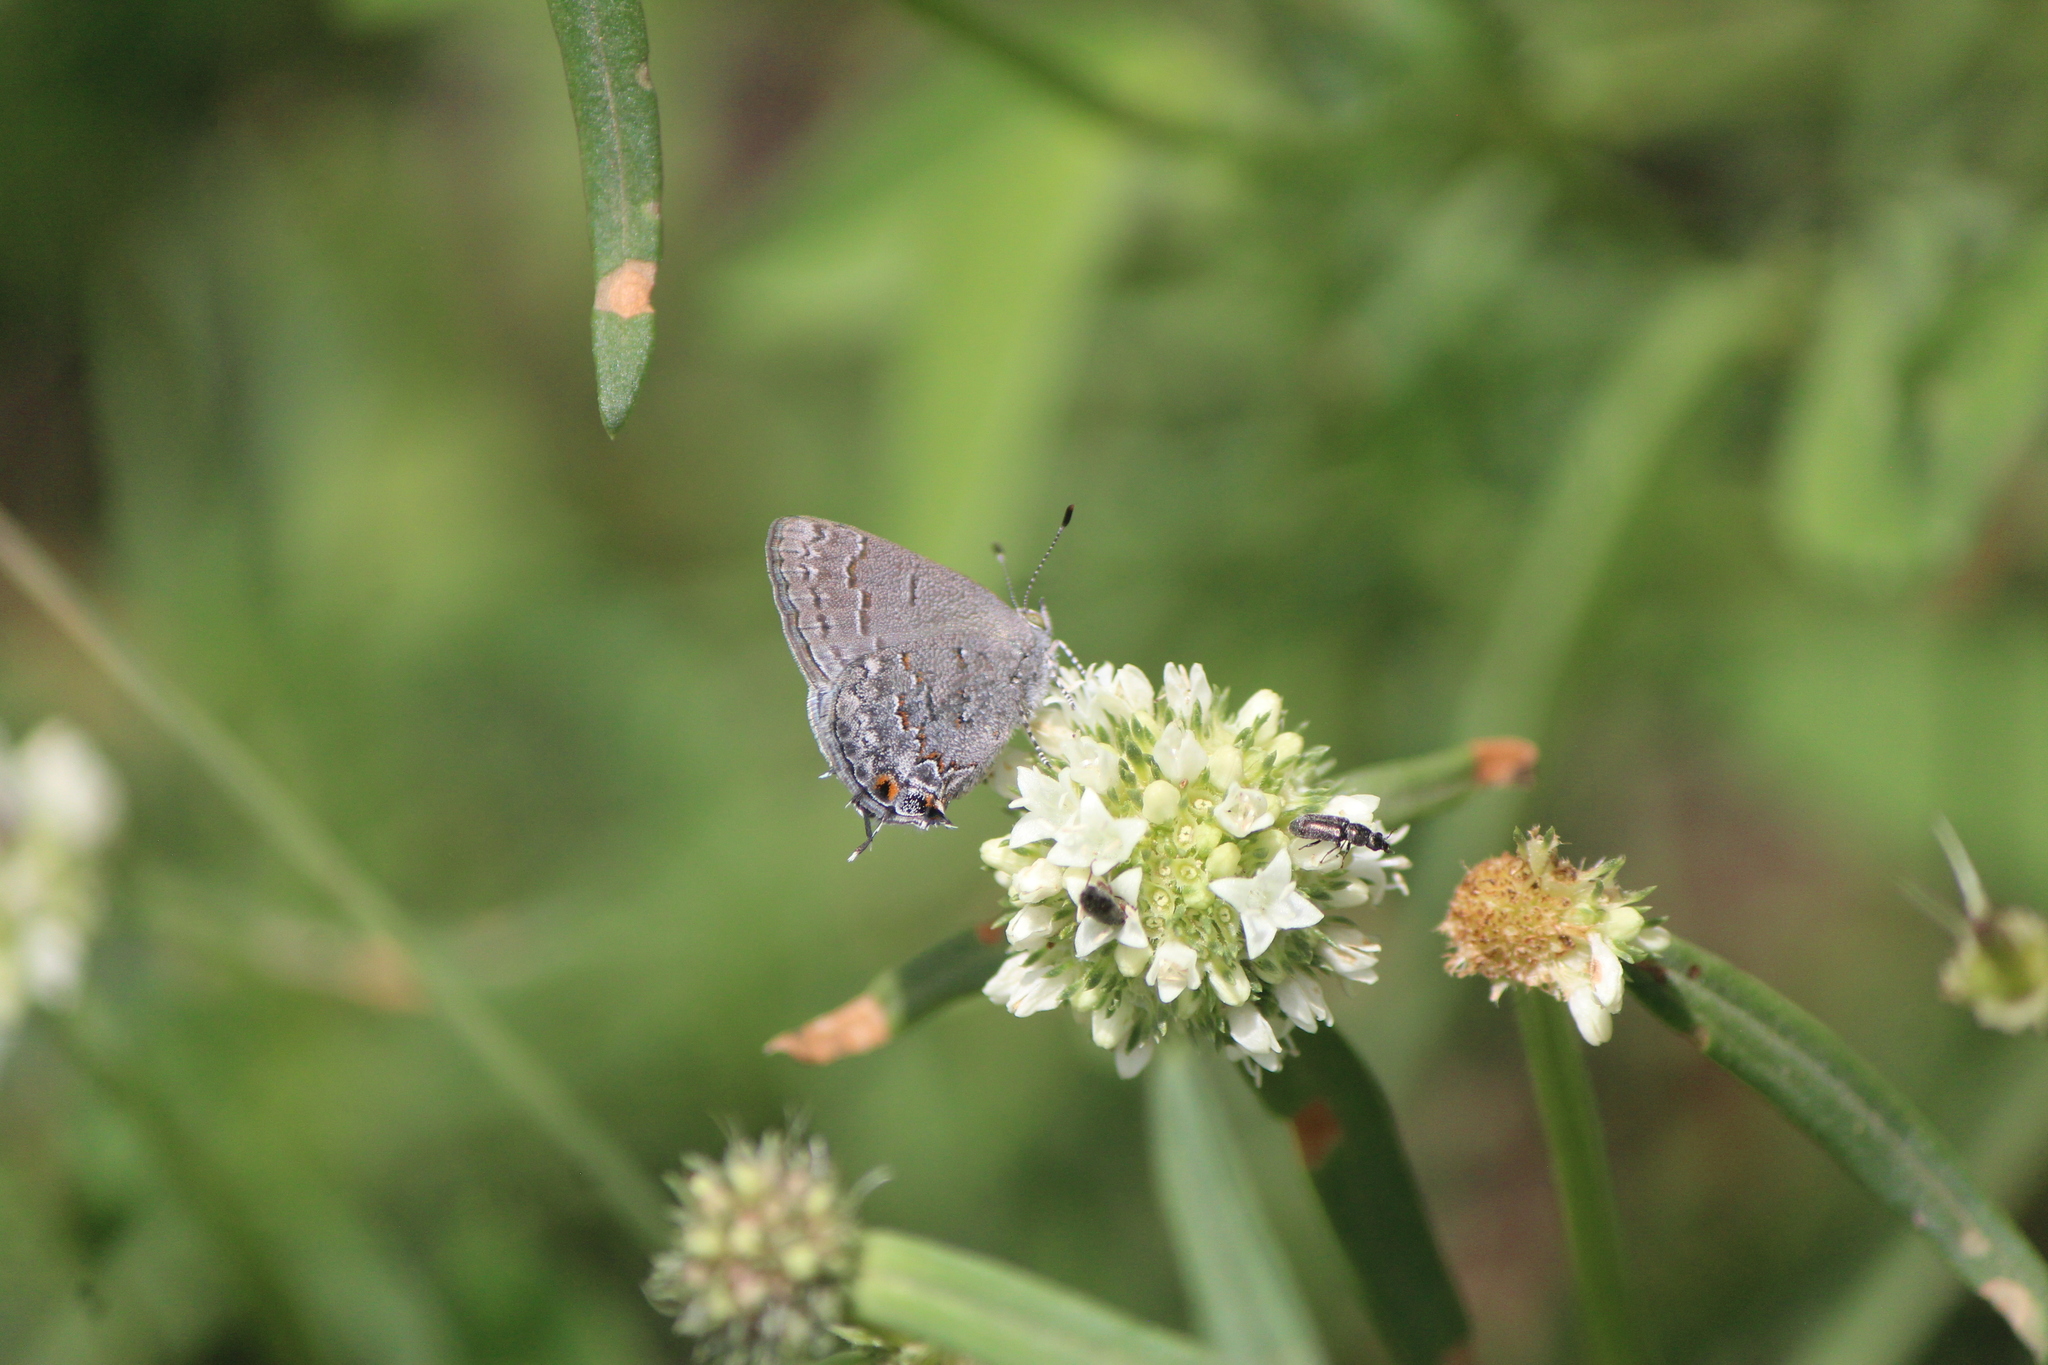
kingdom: Animalia
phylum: Arthropoda
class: Insecta
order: Lepidoptera
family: Lycaenidae
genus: Ministrymon
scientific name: Ministrymon leda
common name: Leda ministreak
